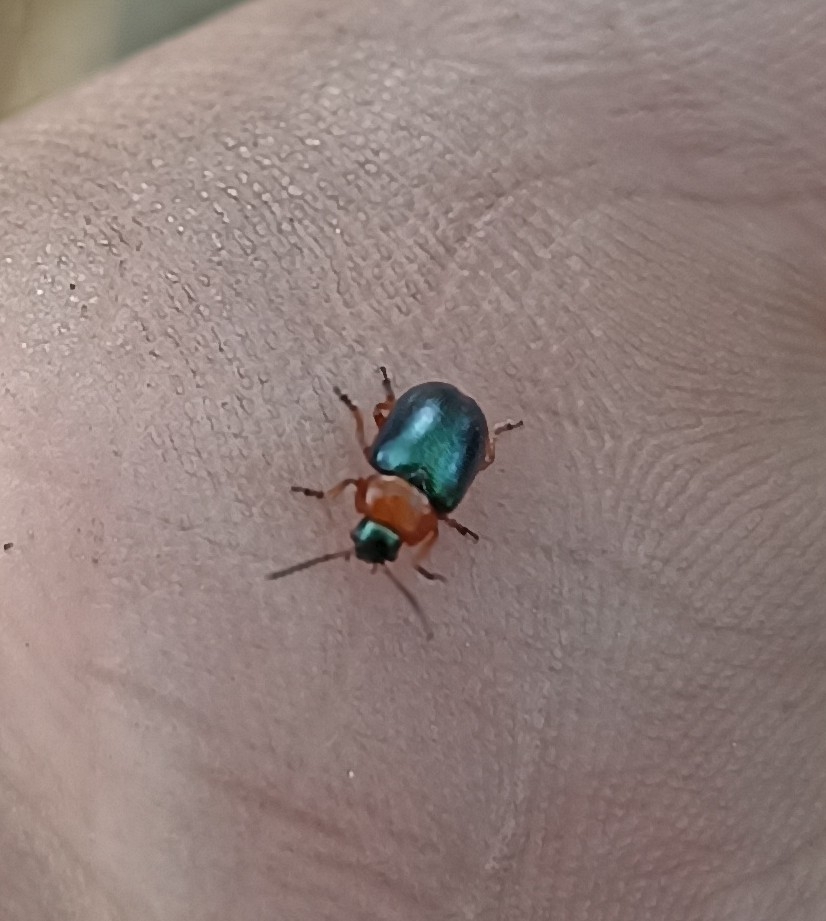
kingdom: Animalia
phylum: Arthropoda
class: Insecta
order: Coleoptera
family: Chrysomelidae
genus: Gastrophysa
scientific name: Gastrophysa polygoni
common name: Knotweed leaf beetle
